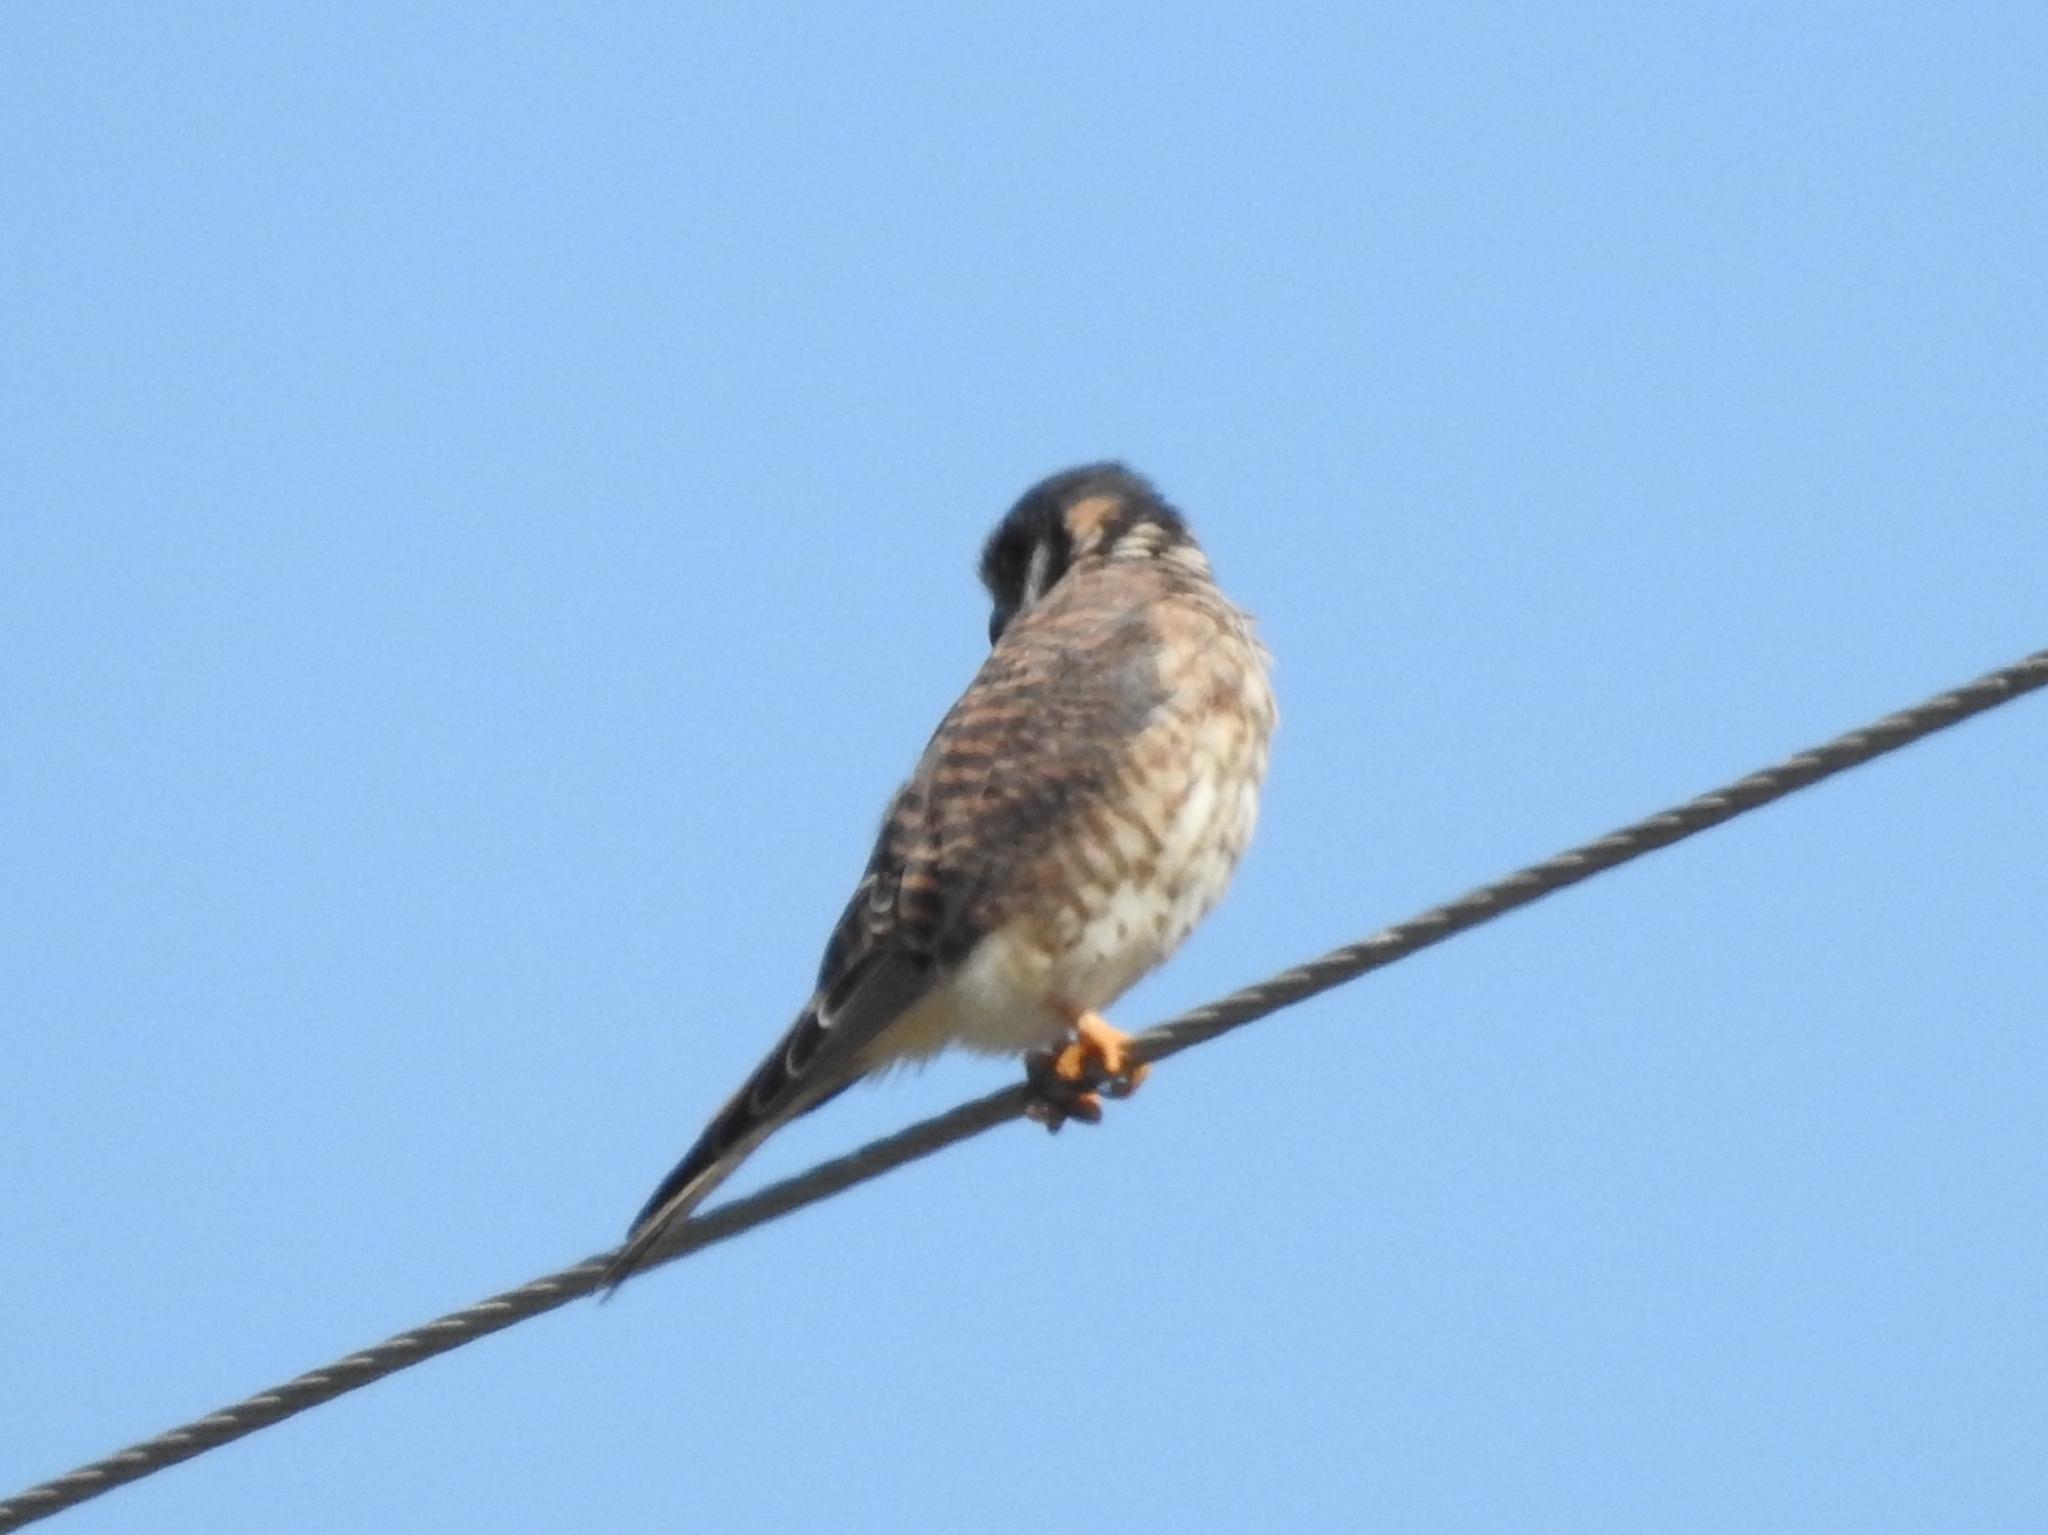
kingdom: Animalia
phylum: Chordata
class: Aves
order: Falconiformes
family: Falconidae
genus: Falco
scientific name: Falco sparverius
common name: American kestrel
